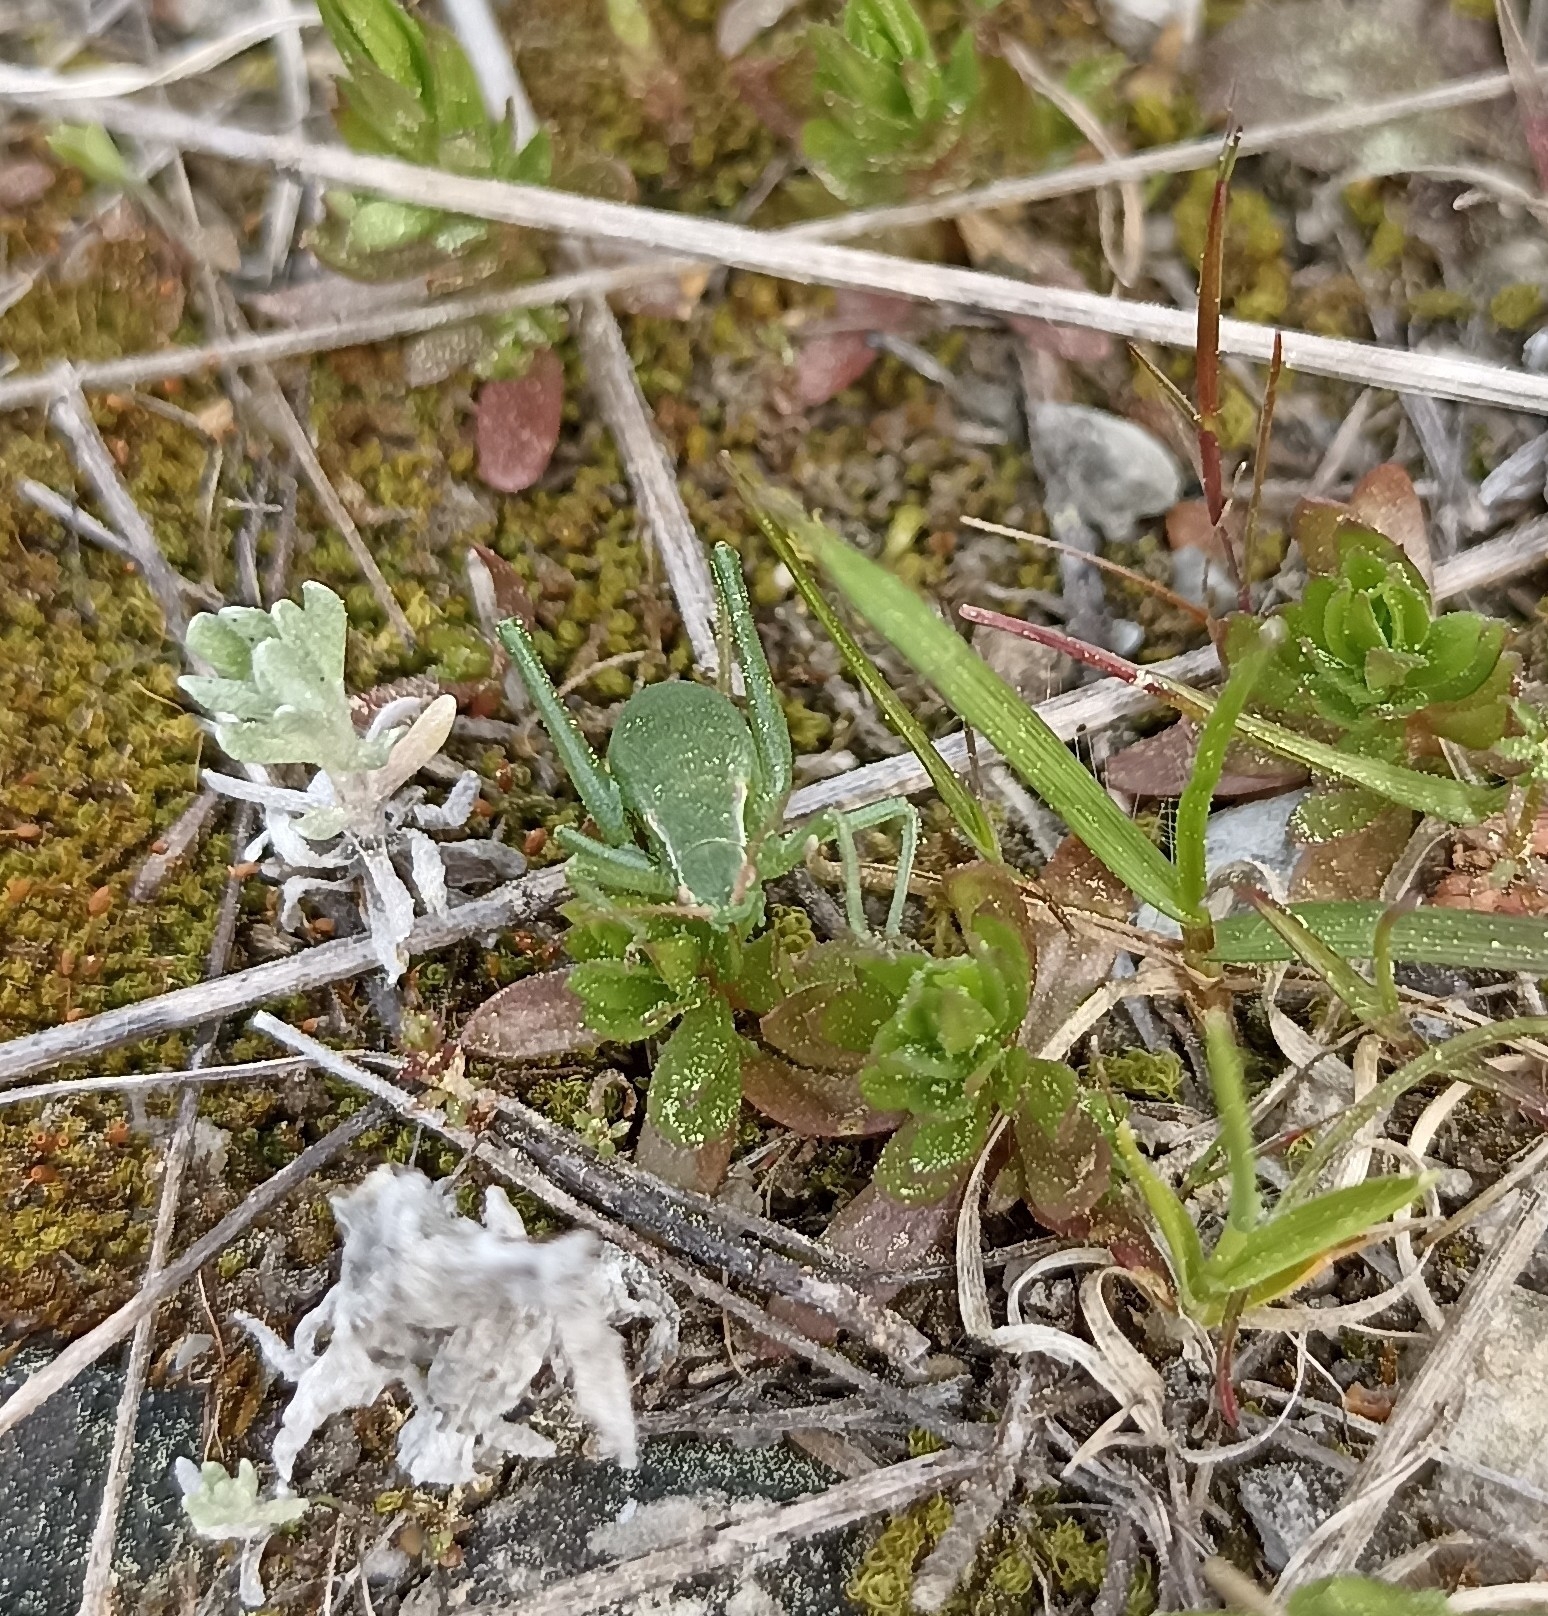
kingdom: Animalia
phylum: Arthropoda
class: Insecta
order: Orthoptera
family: Tettigoniidae
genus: Isophya
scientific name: Isophya pyrenaea
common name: Pyrenean plump bush-cricket
